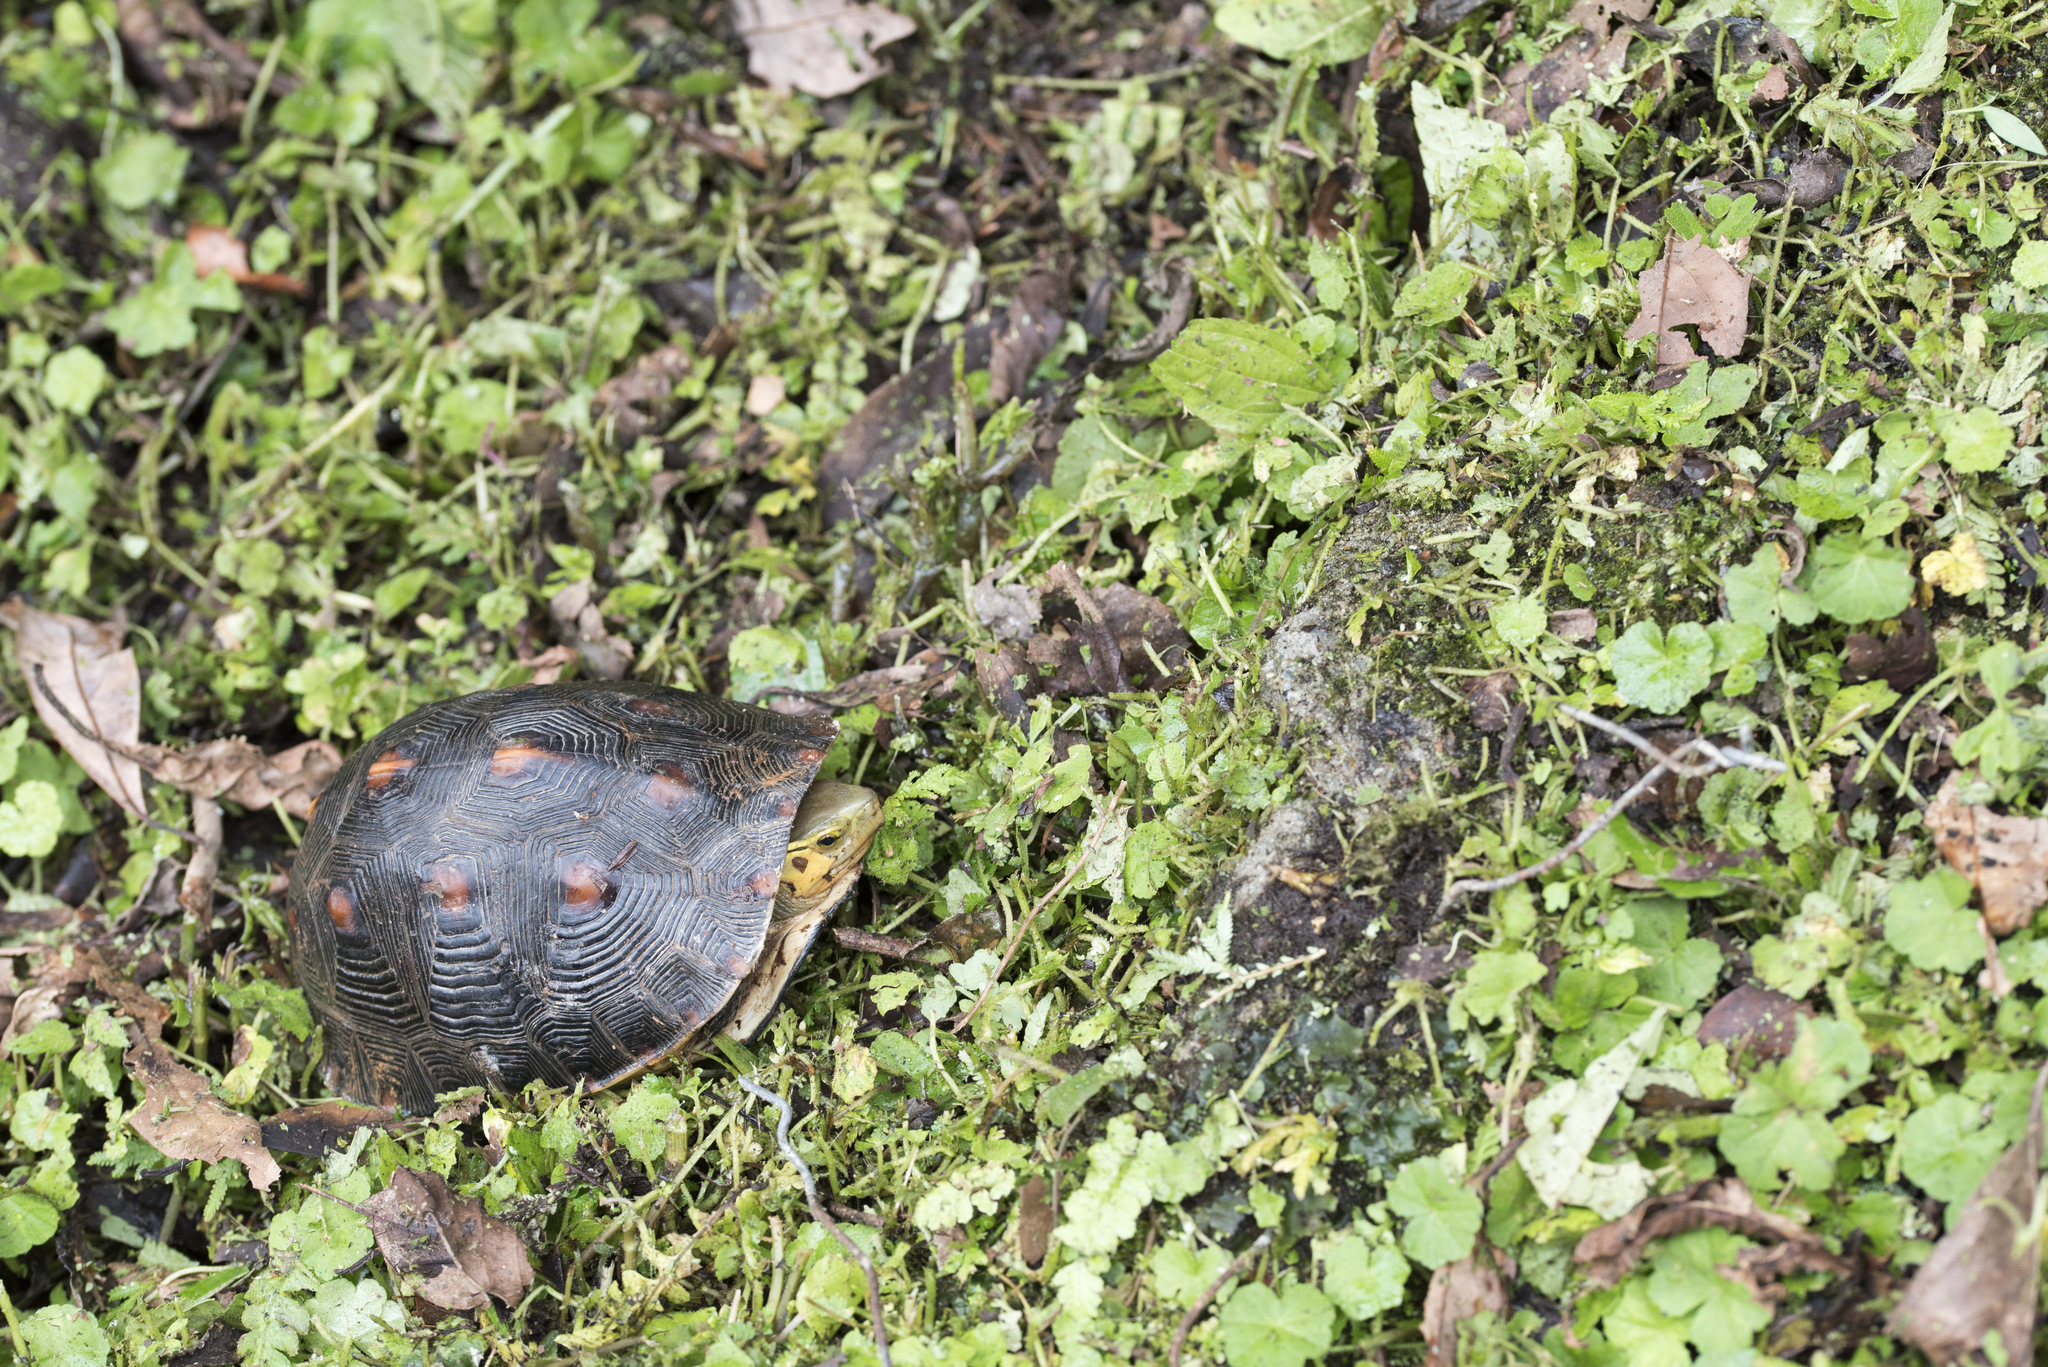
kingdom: Animalia
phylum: Chordata
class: Testudines
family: Geoemydidae
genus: Cuora
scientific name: Cuora flavomarginata
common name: Yellow-margined box turtle
